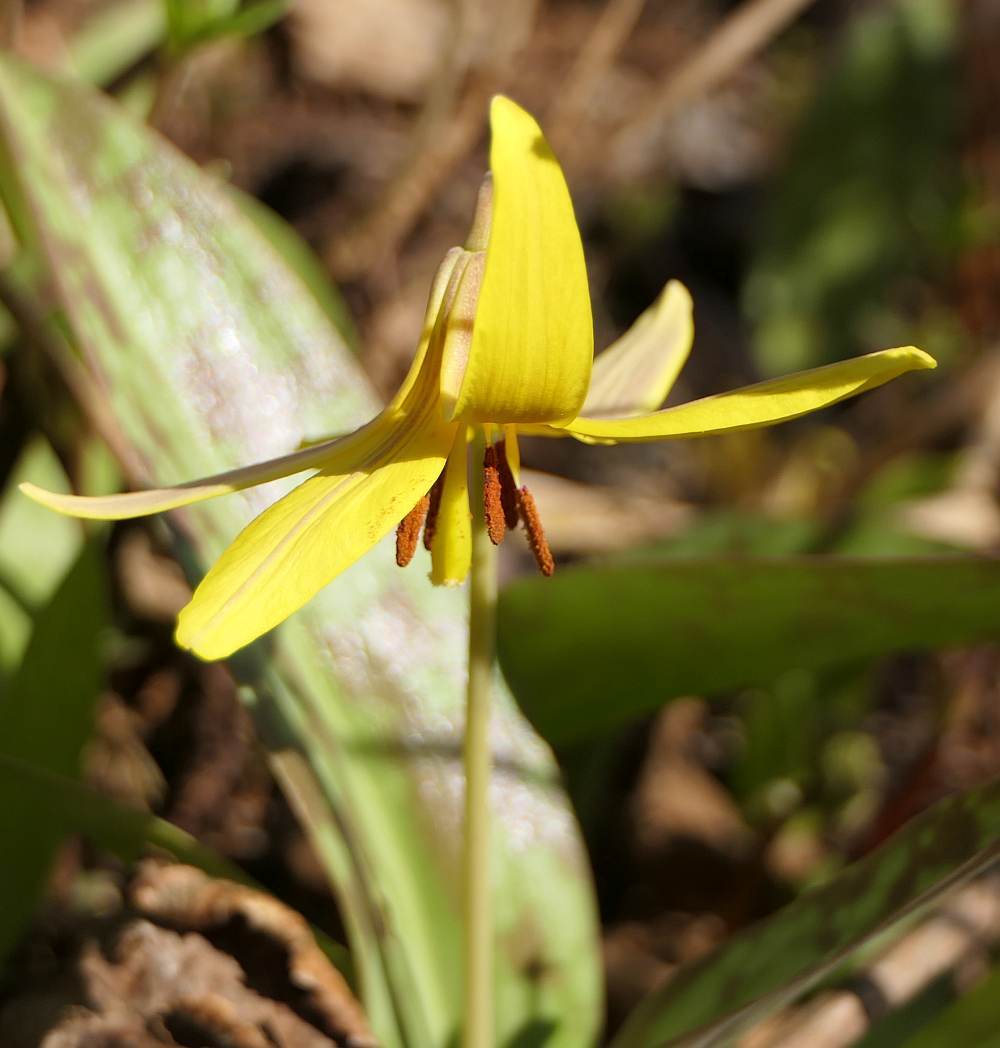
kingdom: Plantae
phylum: Tracheophyta
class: Liliopsida
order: Liliales
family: Liliaceae
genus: Erythronium
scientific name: Erythronium americanum
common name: Yellow adder's-tongue
